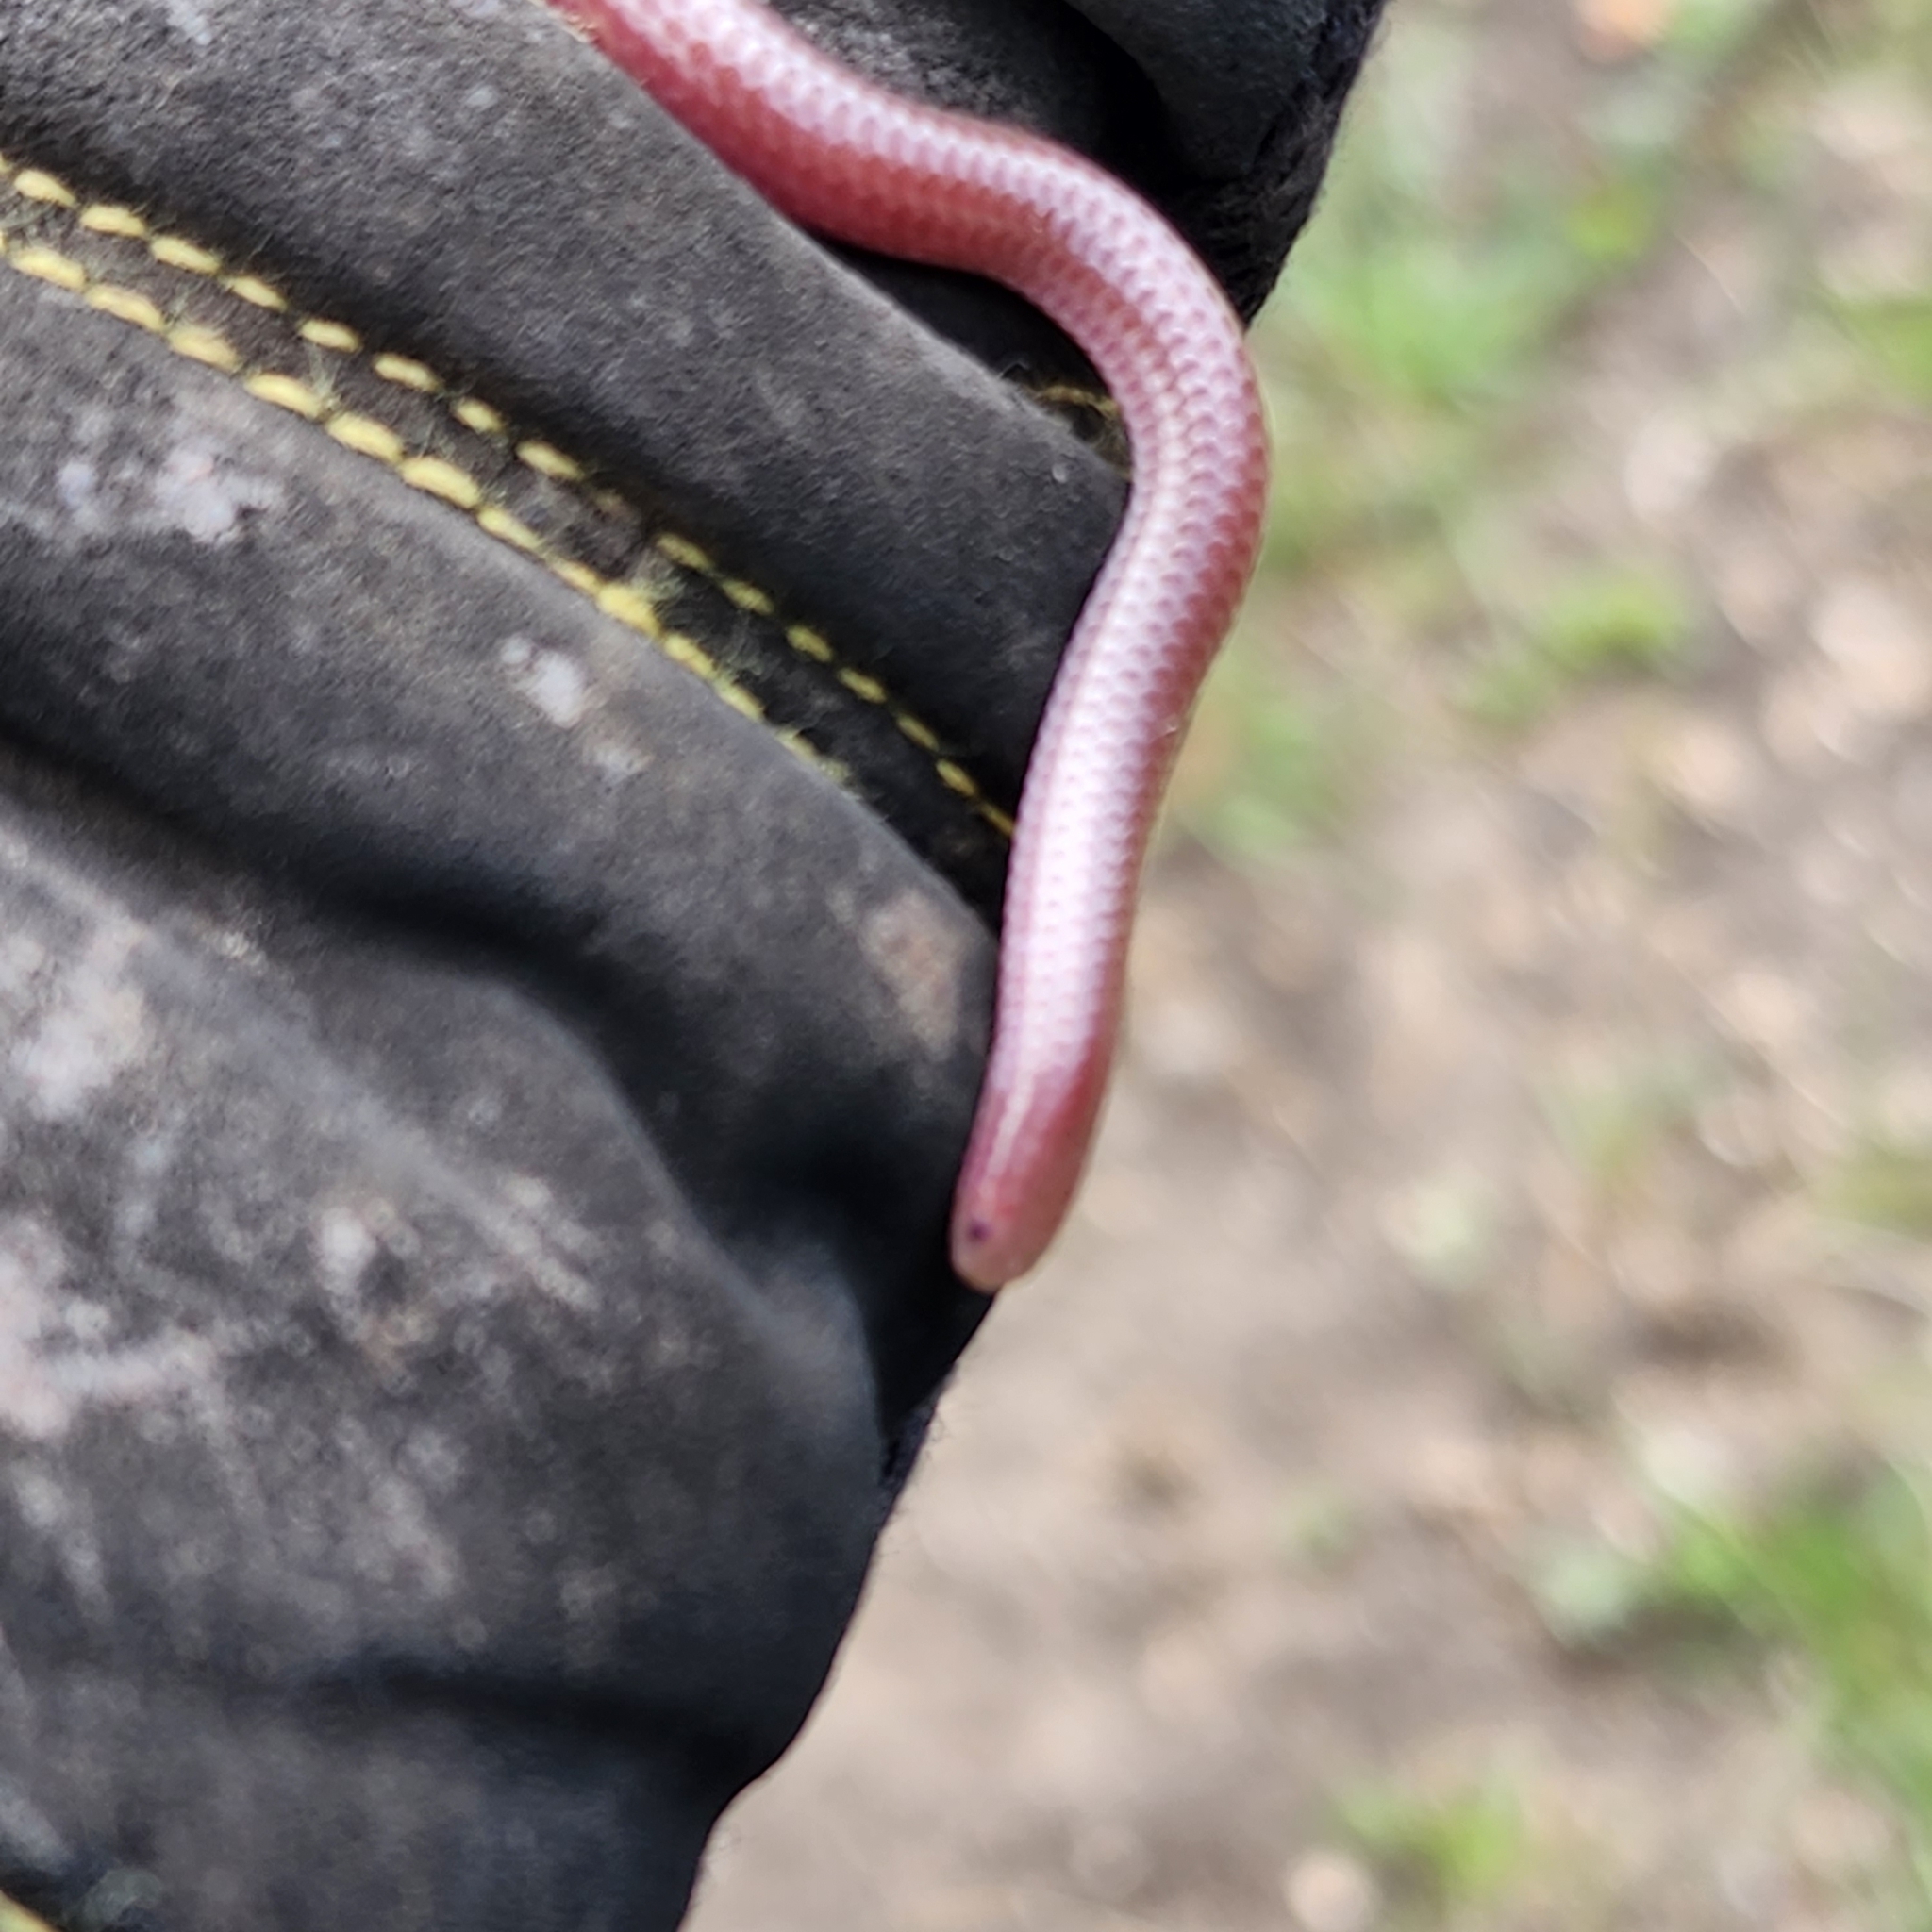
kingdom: Animalia
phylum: Chordata
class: Squamata
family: Leptotyphlopidae
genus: Rena
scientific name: Rena dulcis
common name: Texas blind snake
